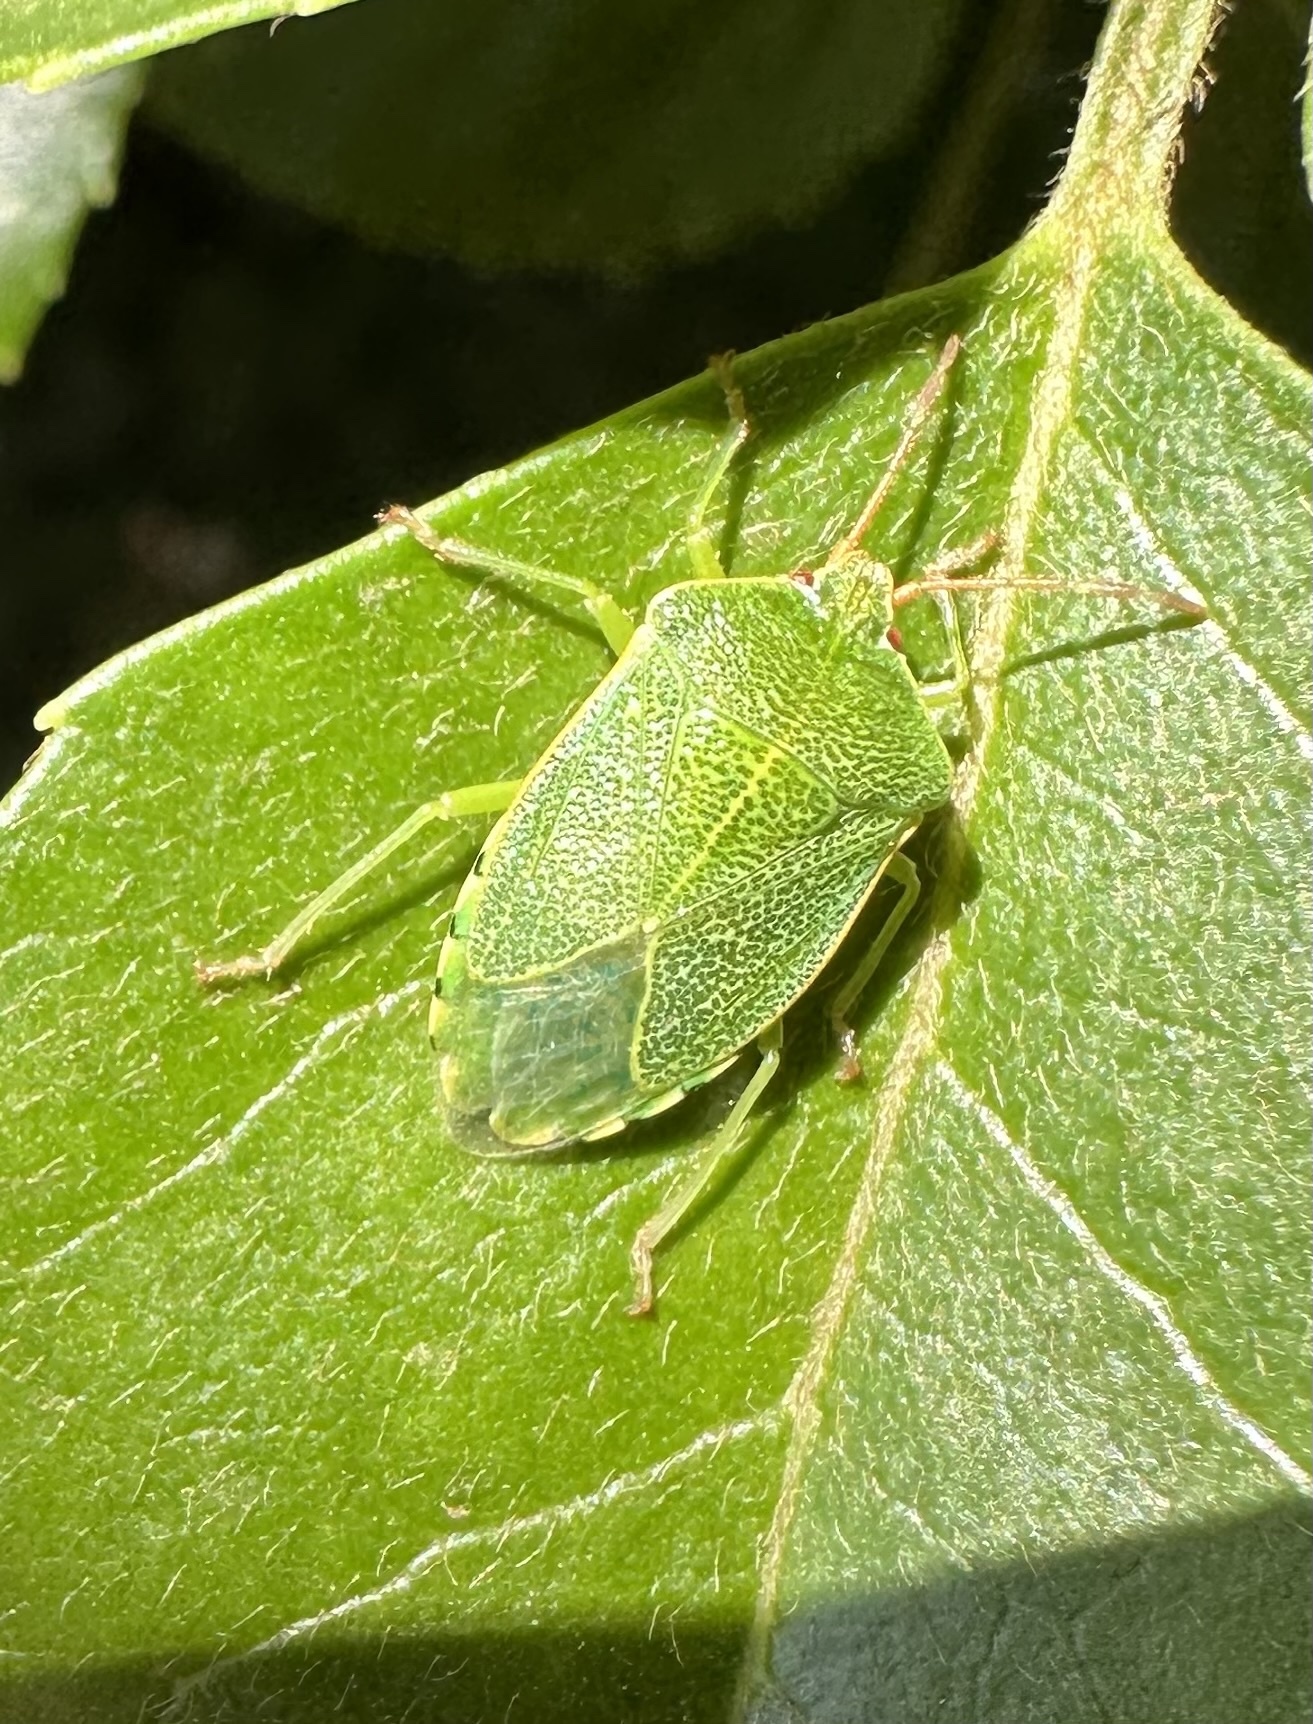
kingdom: Animalia
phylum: Arthropoda
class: Insecta
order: Hemiptera
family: Acanthosomatidae
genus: Sinopla
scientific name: Sinopla perpunctatus
